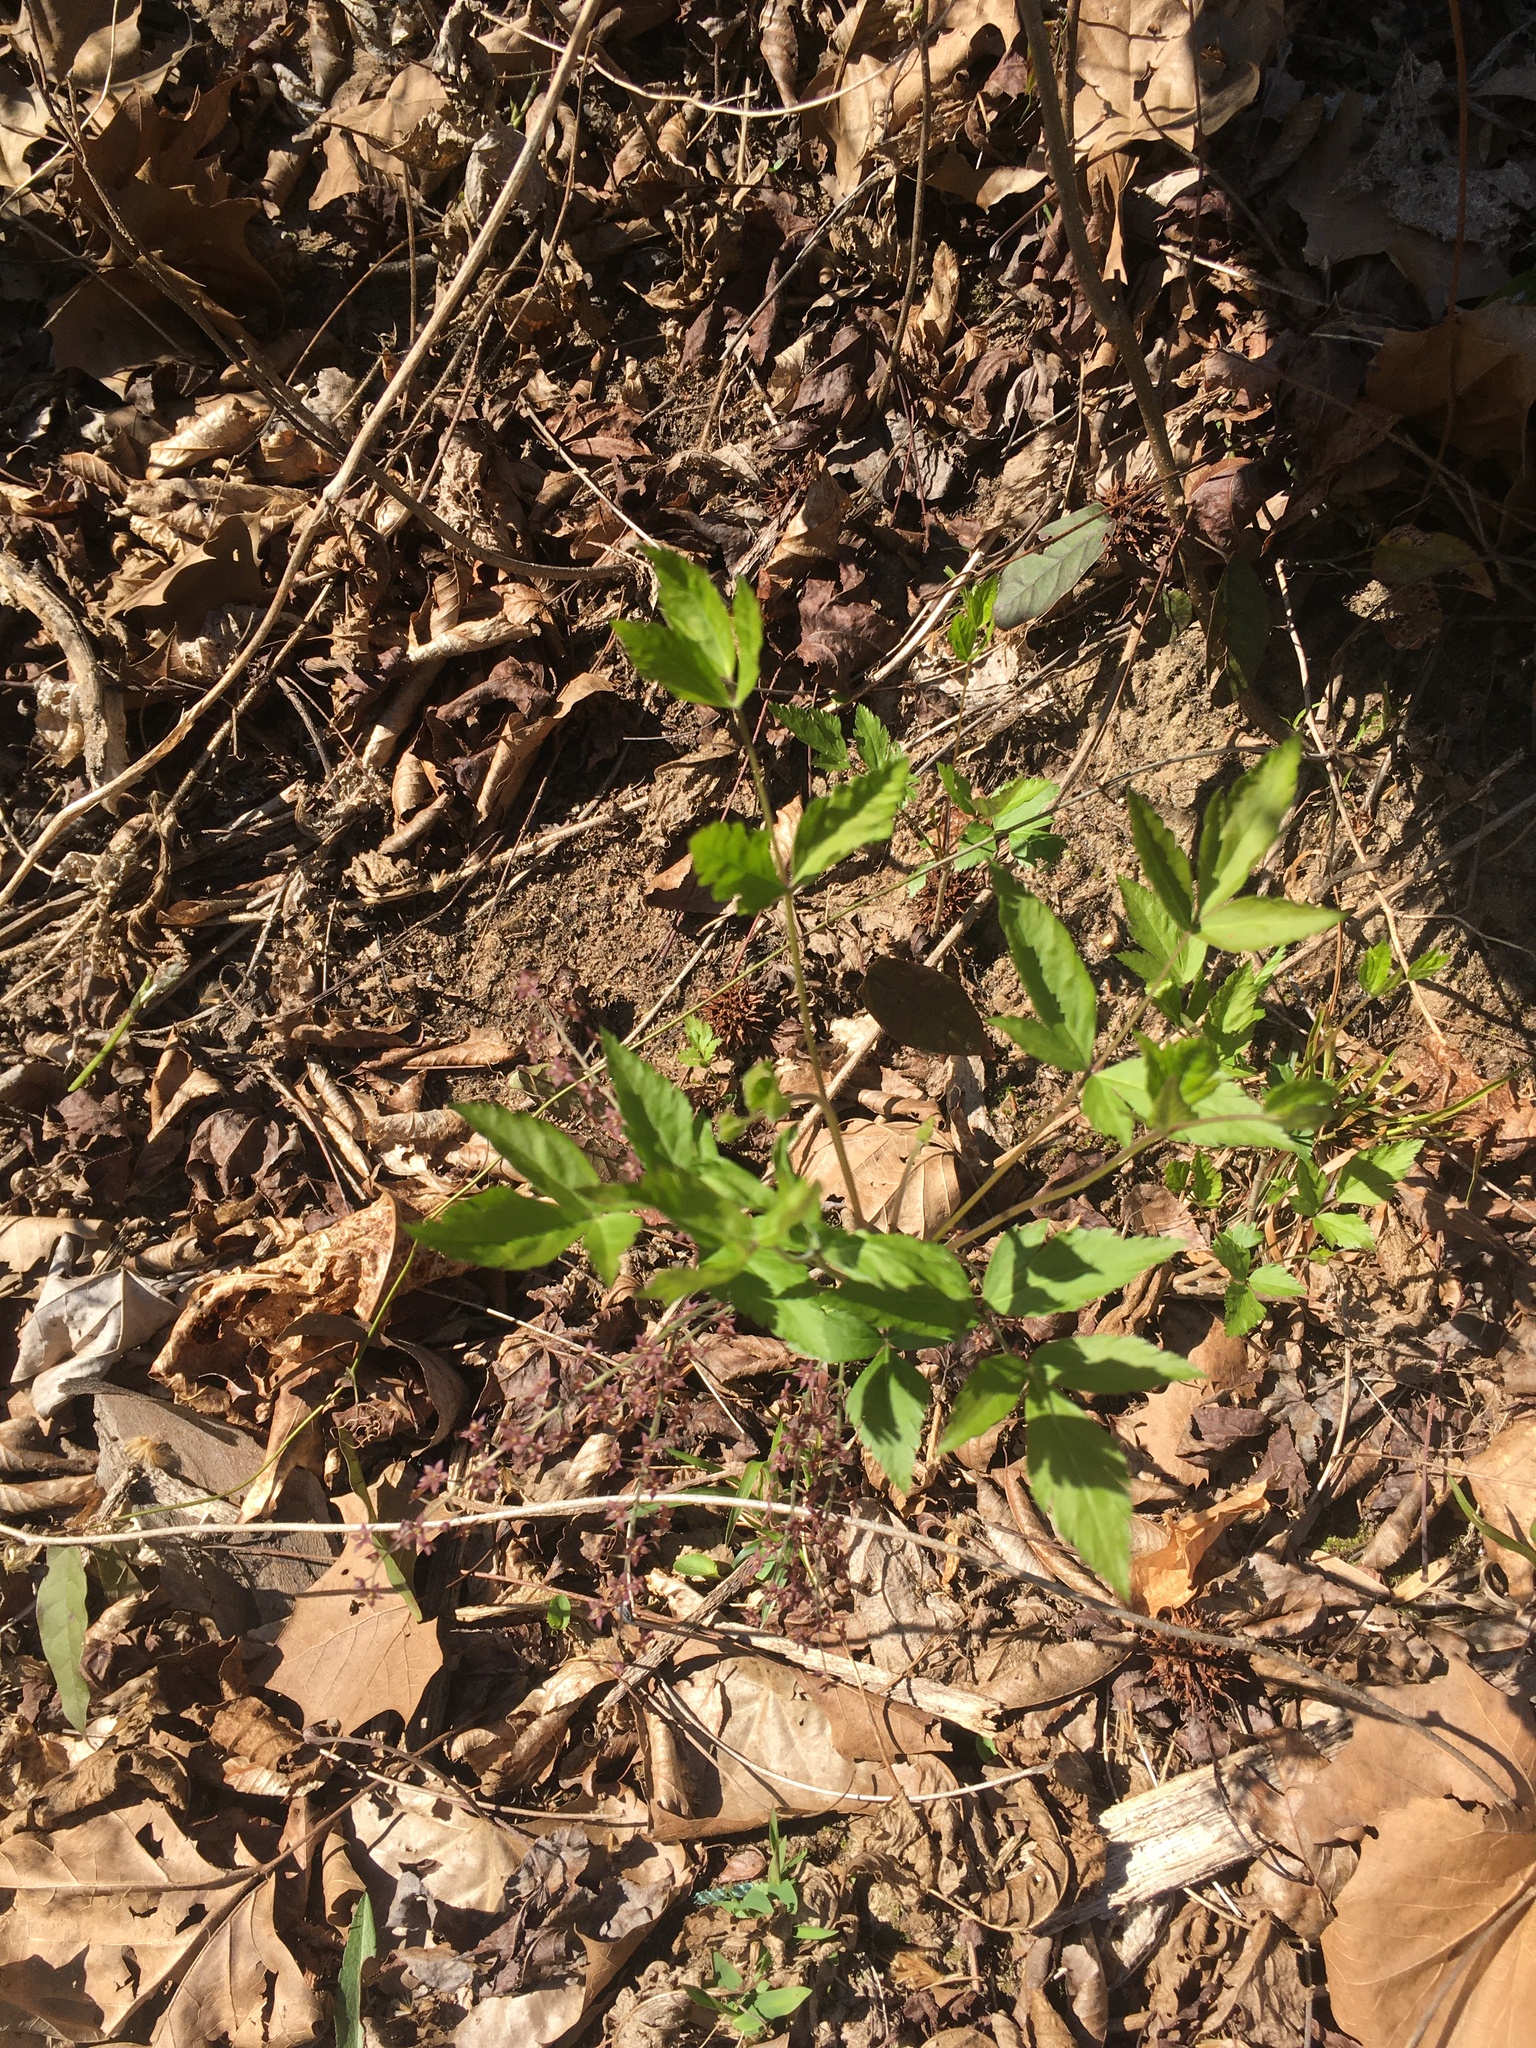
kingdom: Plantae
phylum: Tracheophyta
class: Magnoliopsida
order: Ranunculales
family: Ranunculaceae
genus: Xanthorhiza
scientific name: Xanthorhiza simplicissima
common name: Yellowroot
